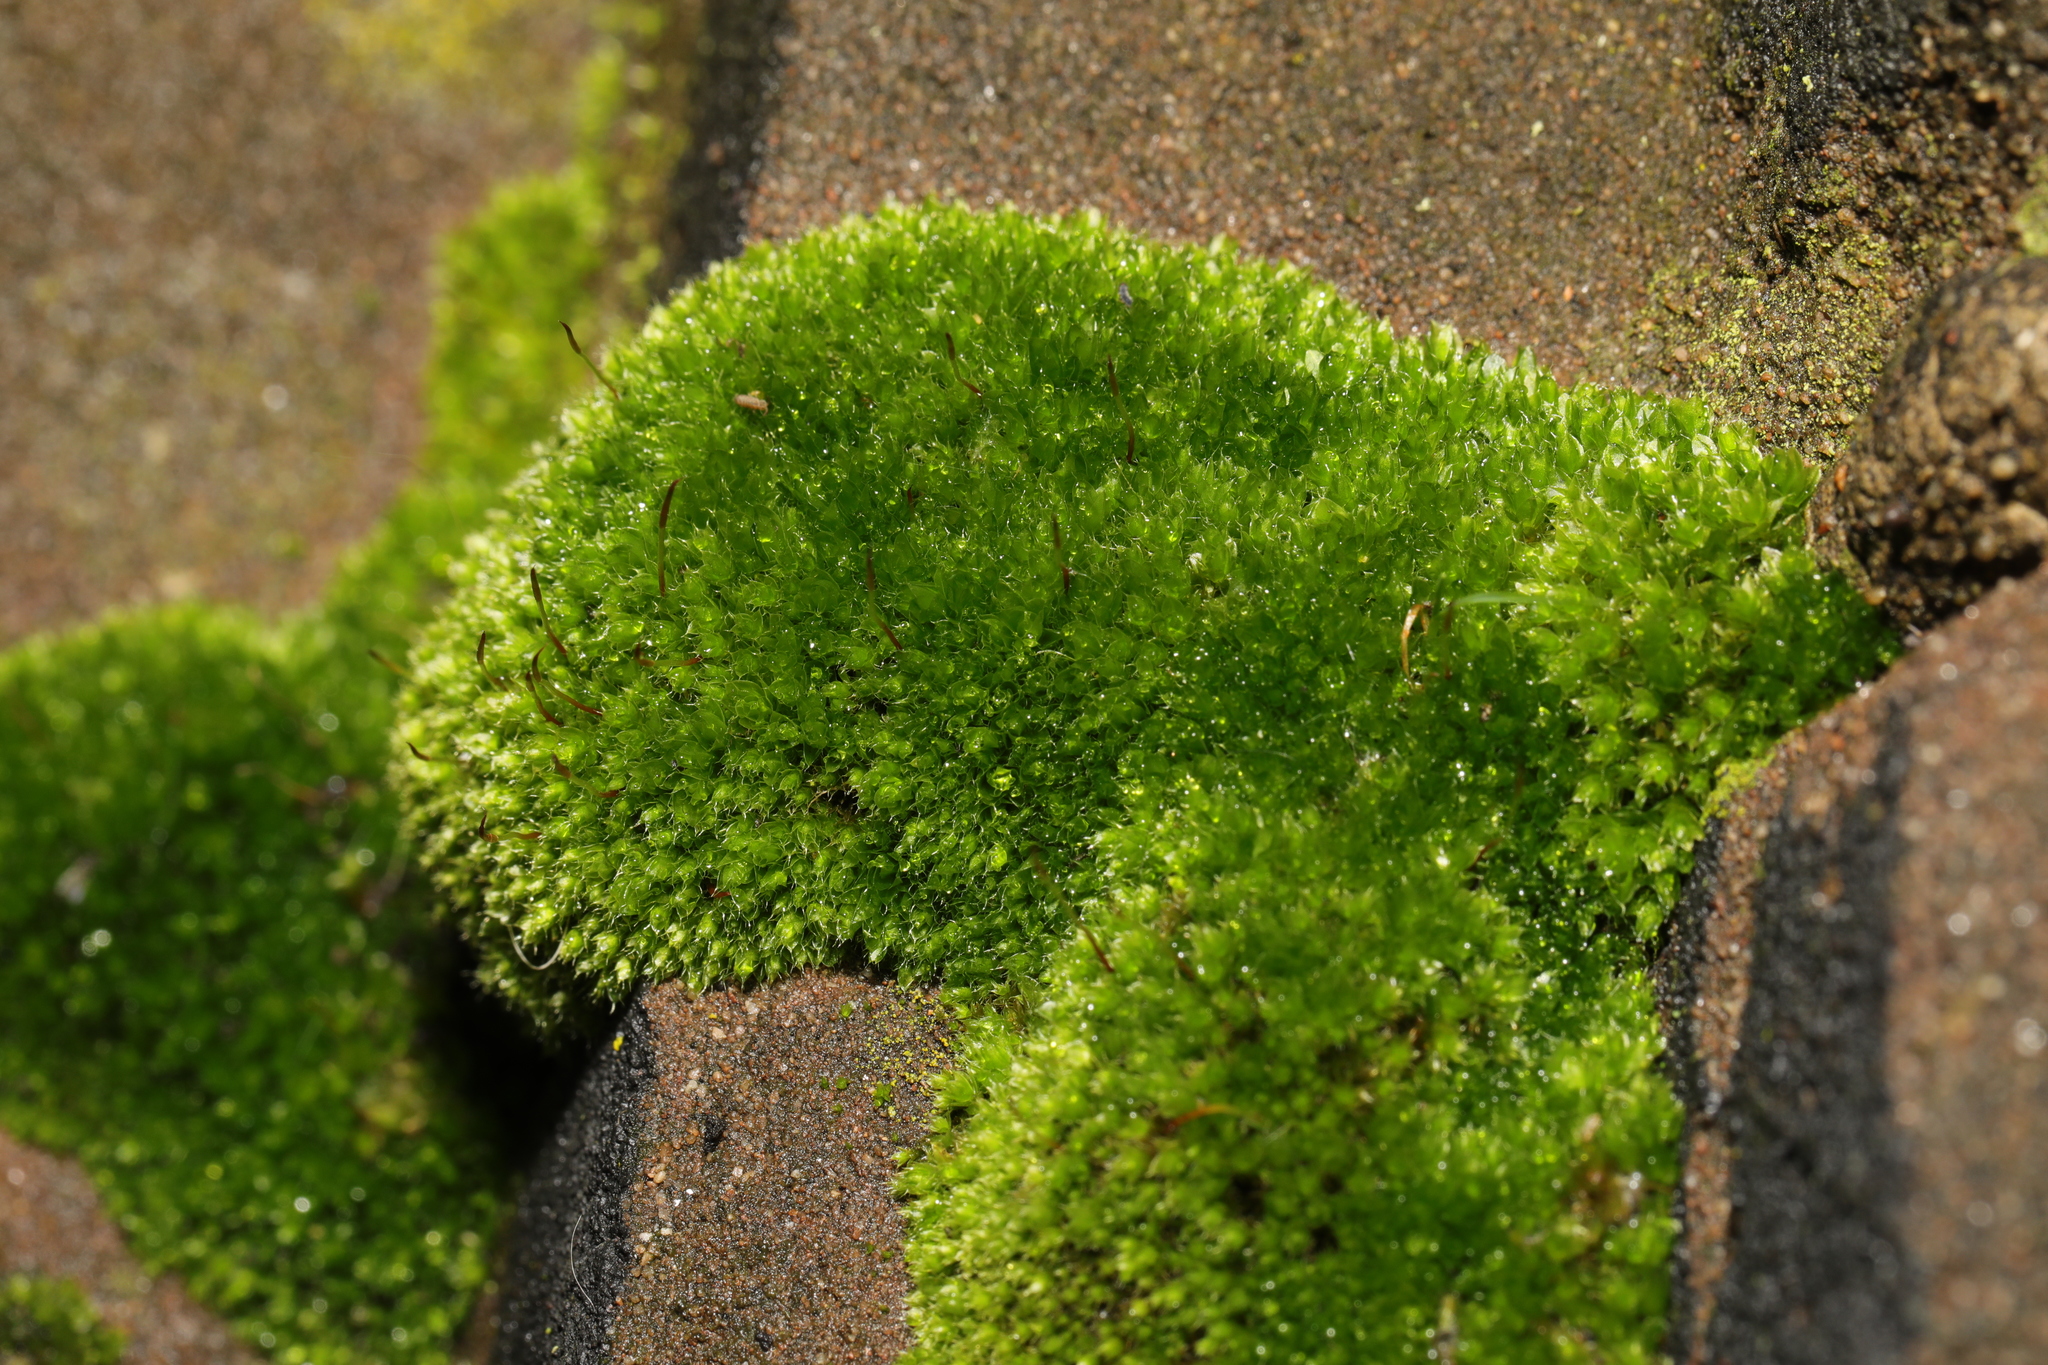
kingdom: Plantae
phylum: Bryophyta
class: Bryopsida
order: Bryales
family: Bryaceae
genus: Rosulabryum
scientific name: Rosulabryum capillare
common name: Capillary thread-moss
